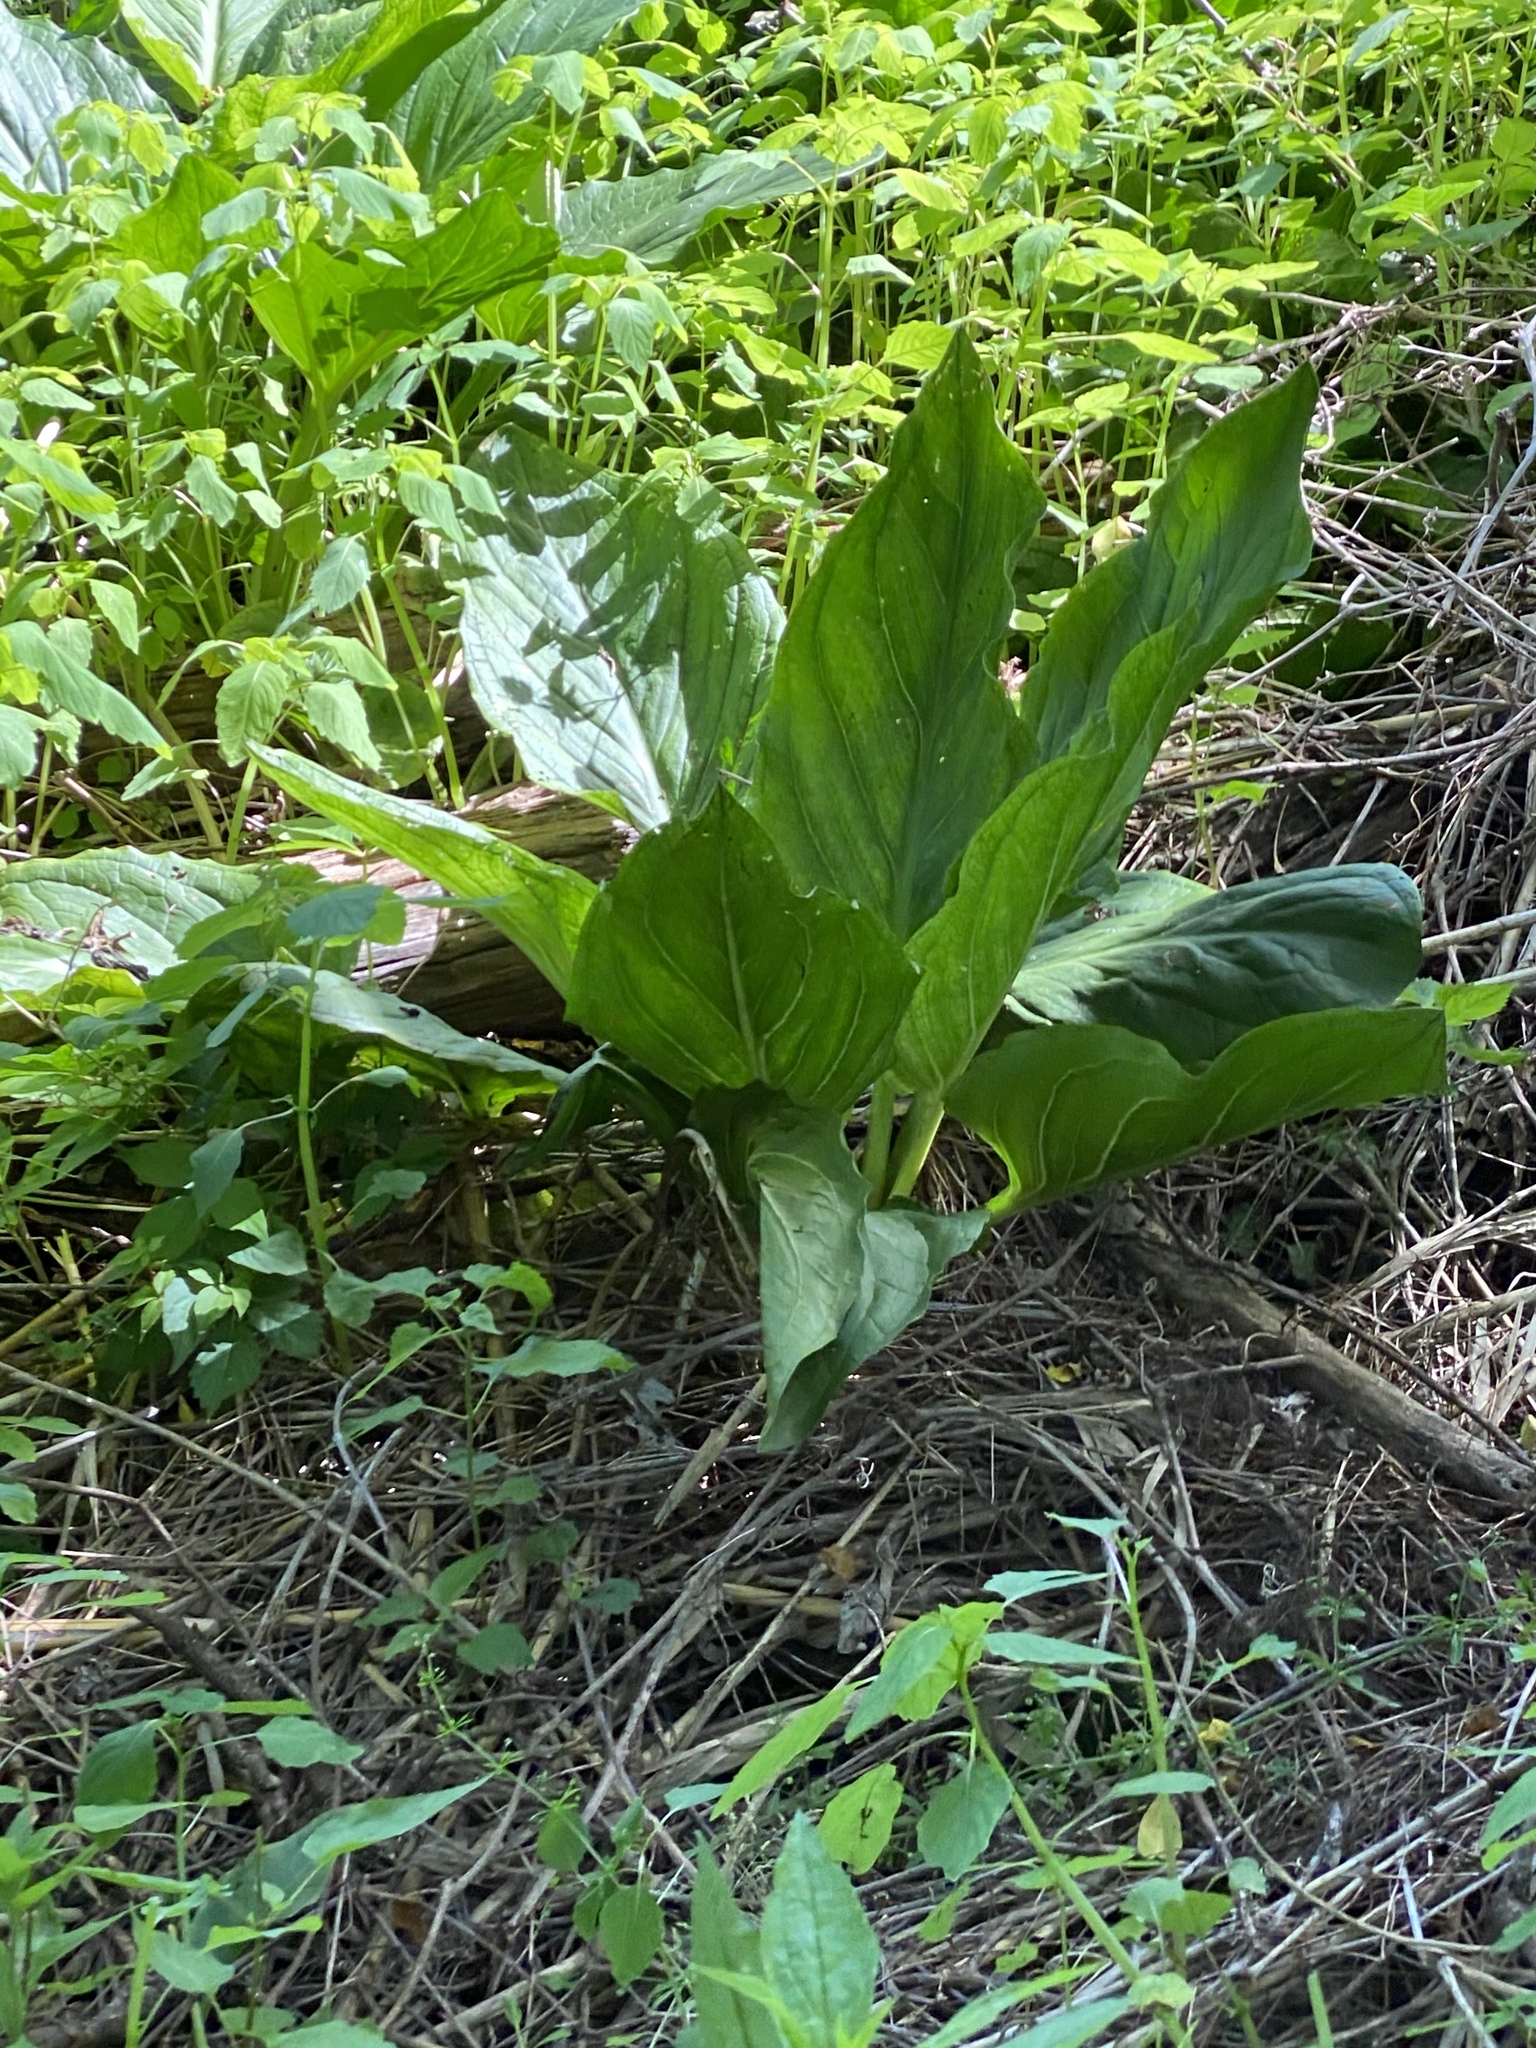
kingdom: Plantae
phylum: Tracheophyta
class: Liliopsida
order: Alismatales
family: Araceae
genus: Symplocarpus
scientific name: Symplocarpus foetidus
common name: Eastern skunk cabbage
